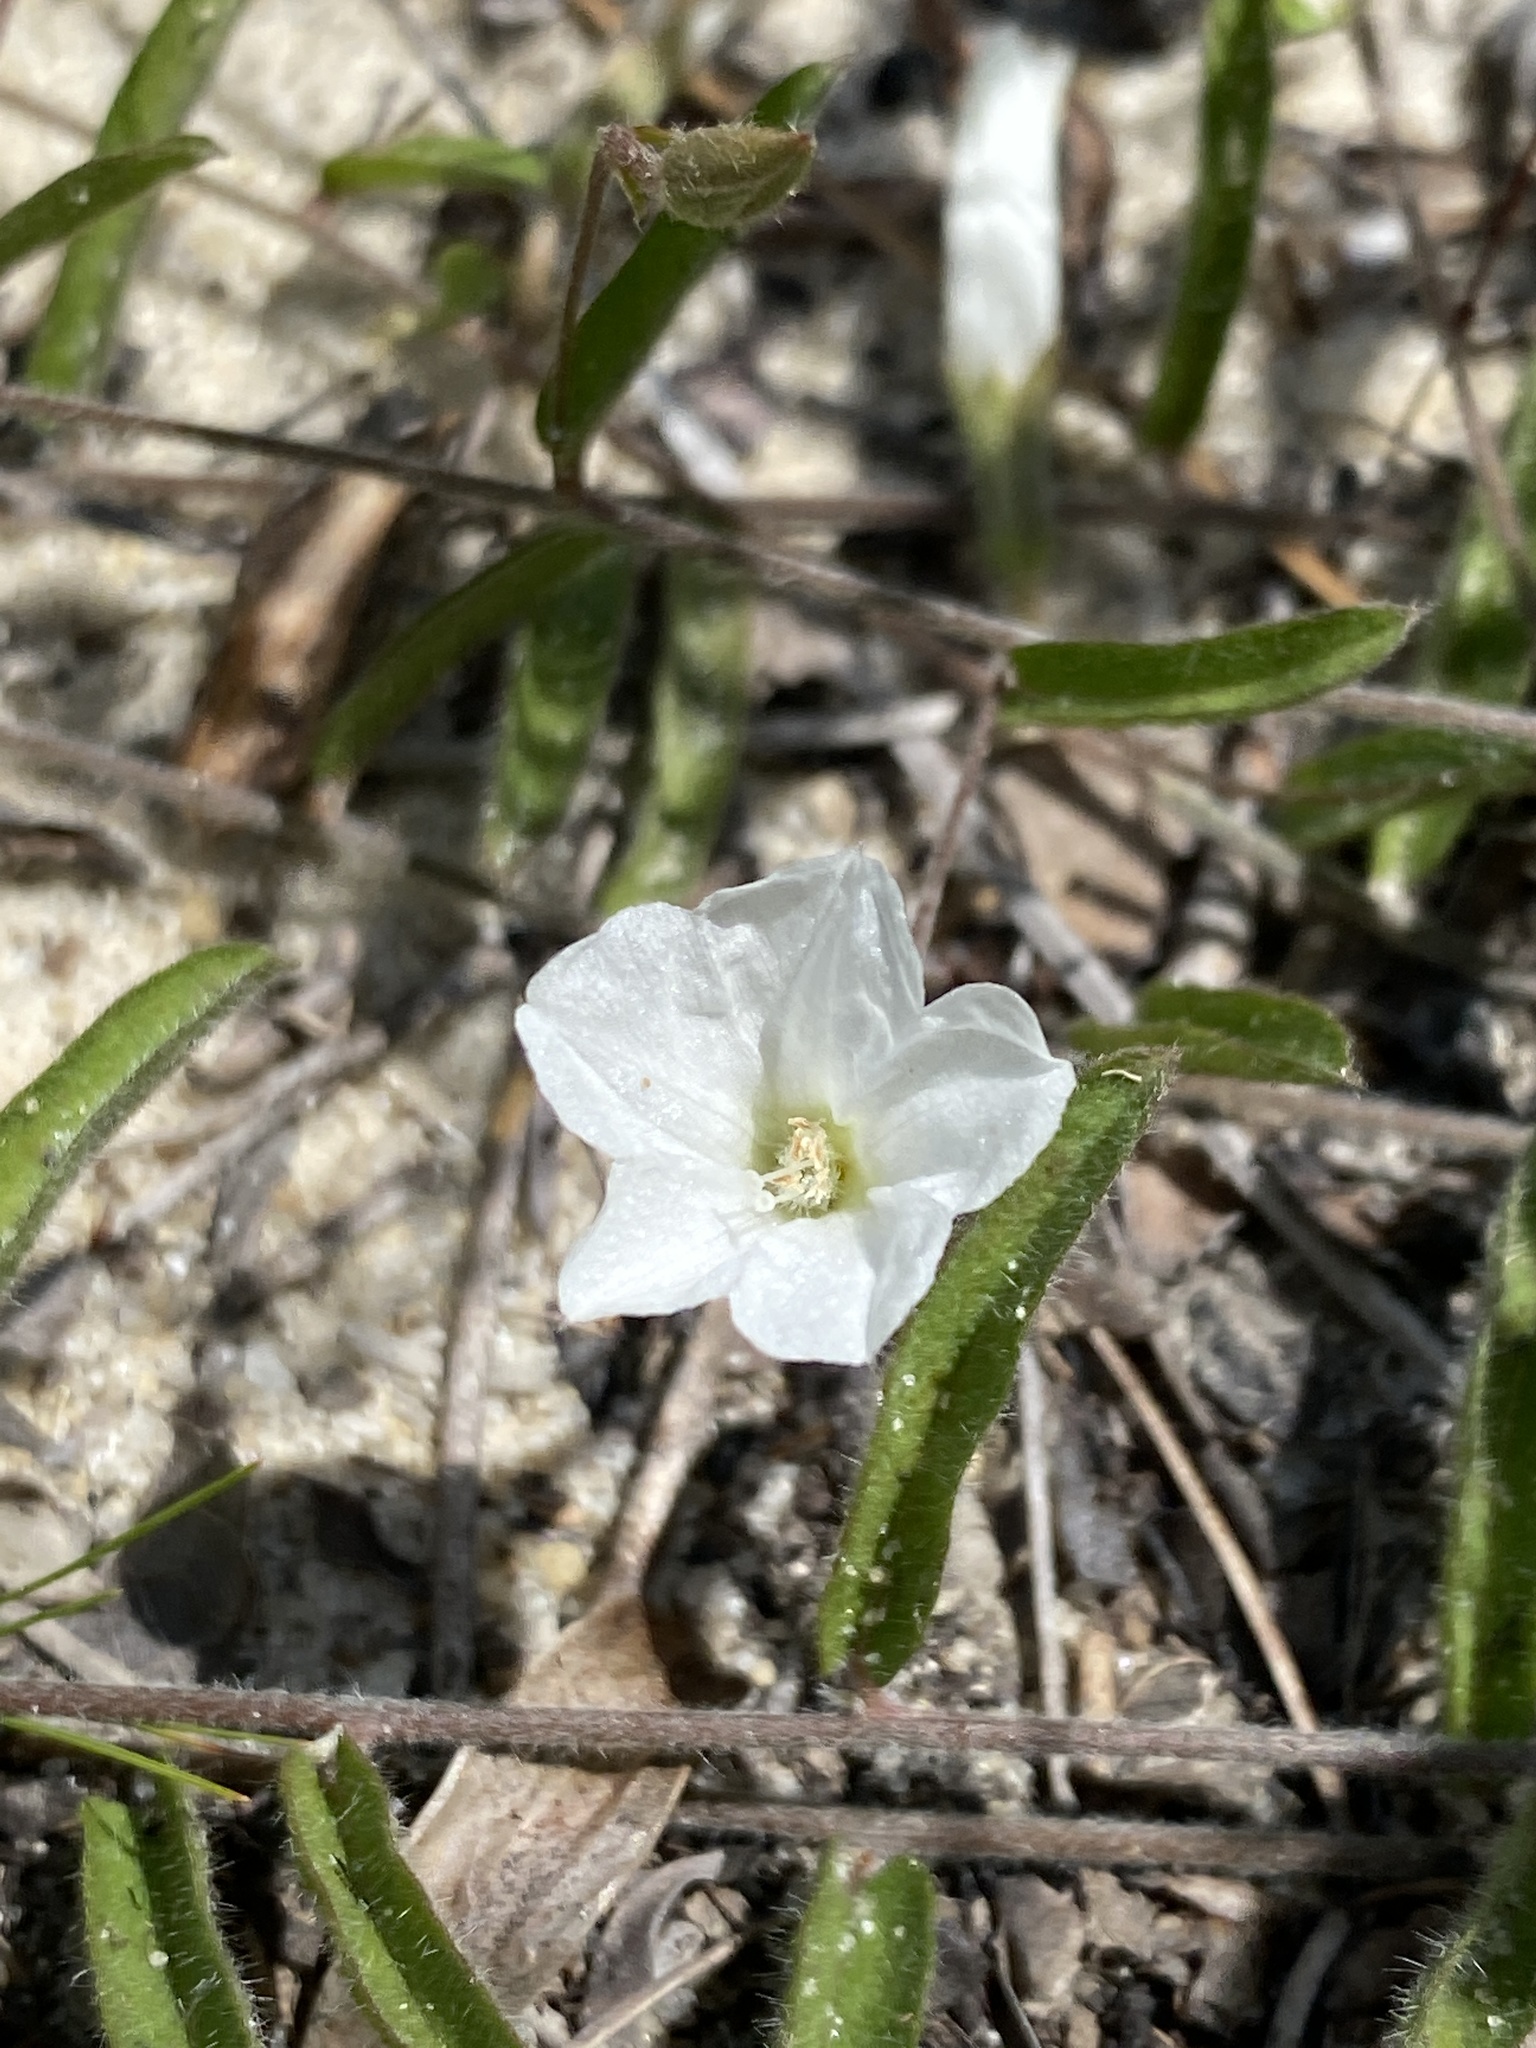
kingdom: Plantae
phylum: Tracheophyta
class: Magnoliopsida
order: Solanales
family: Convolvulaceae
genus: Stylisma
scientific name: Stylisma patens
